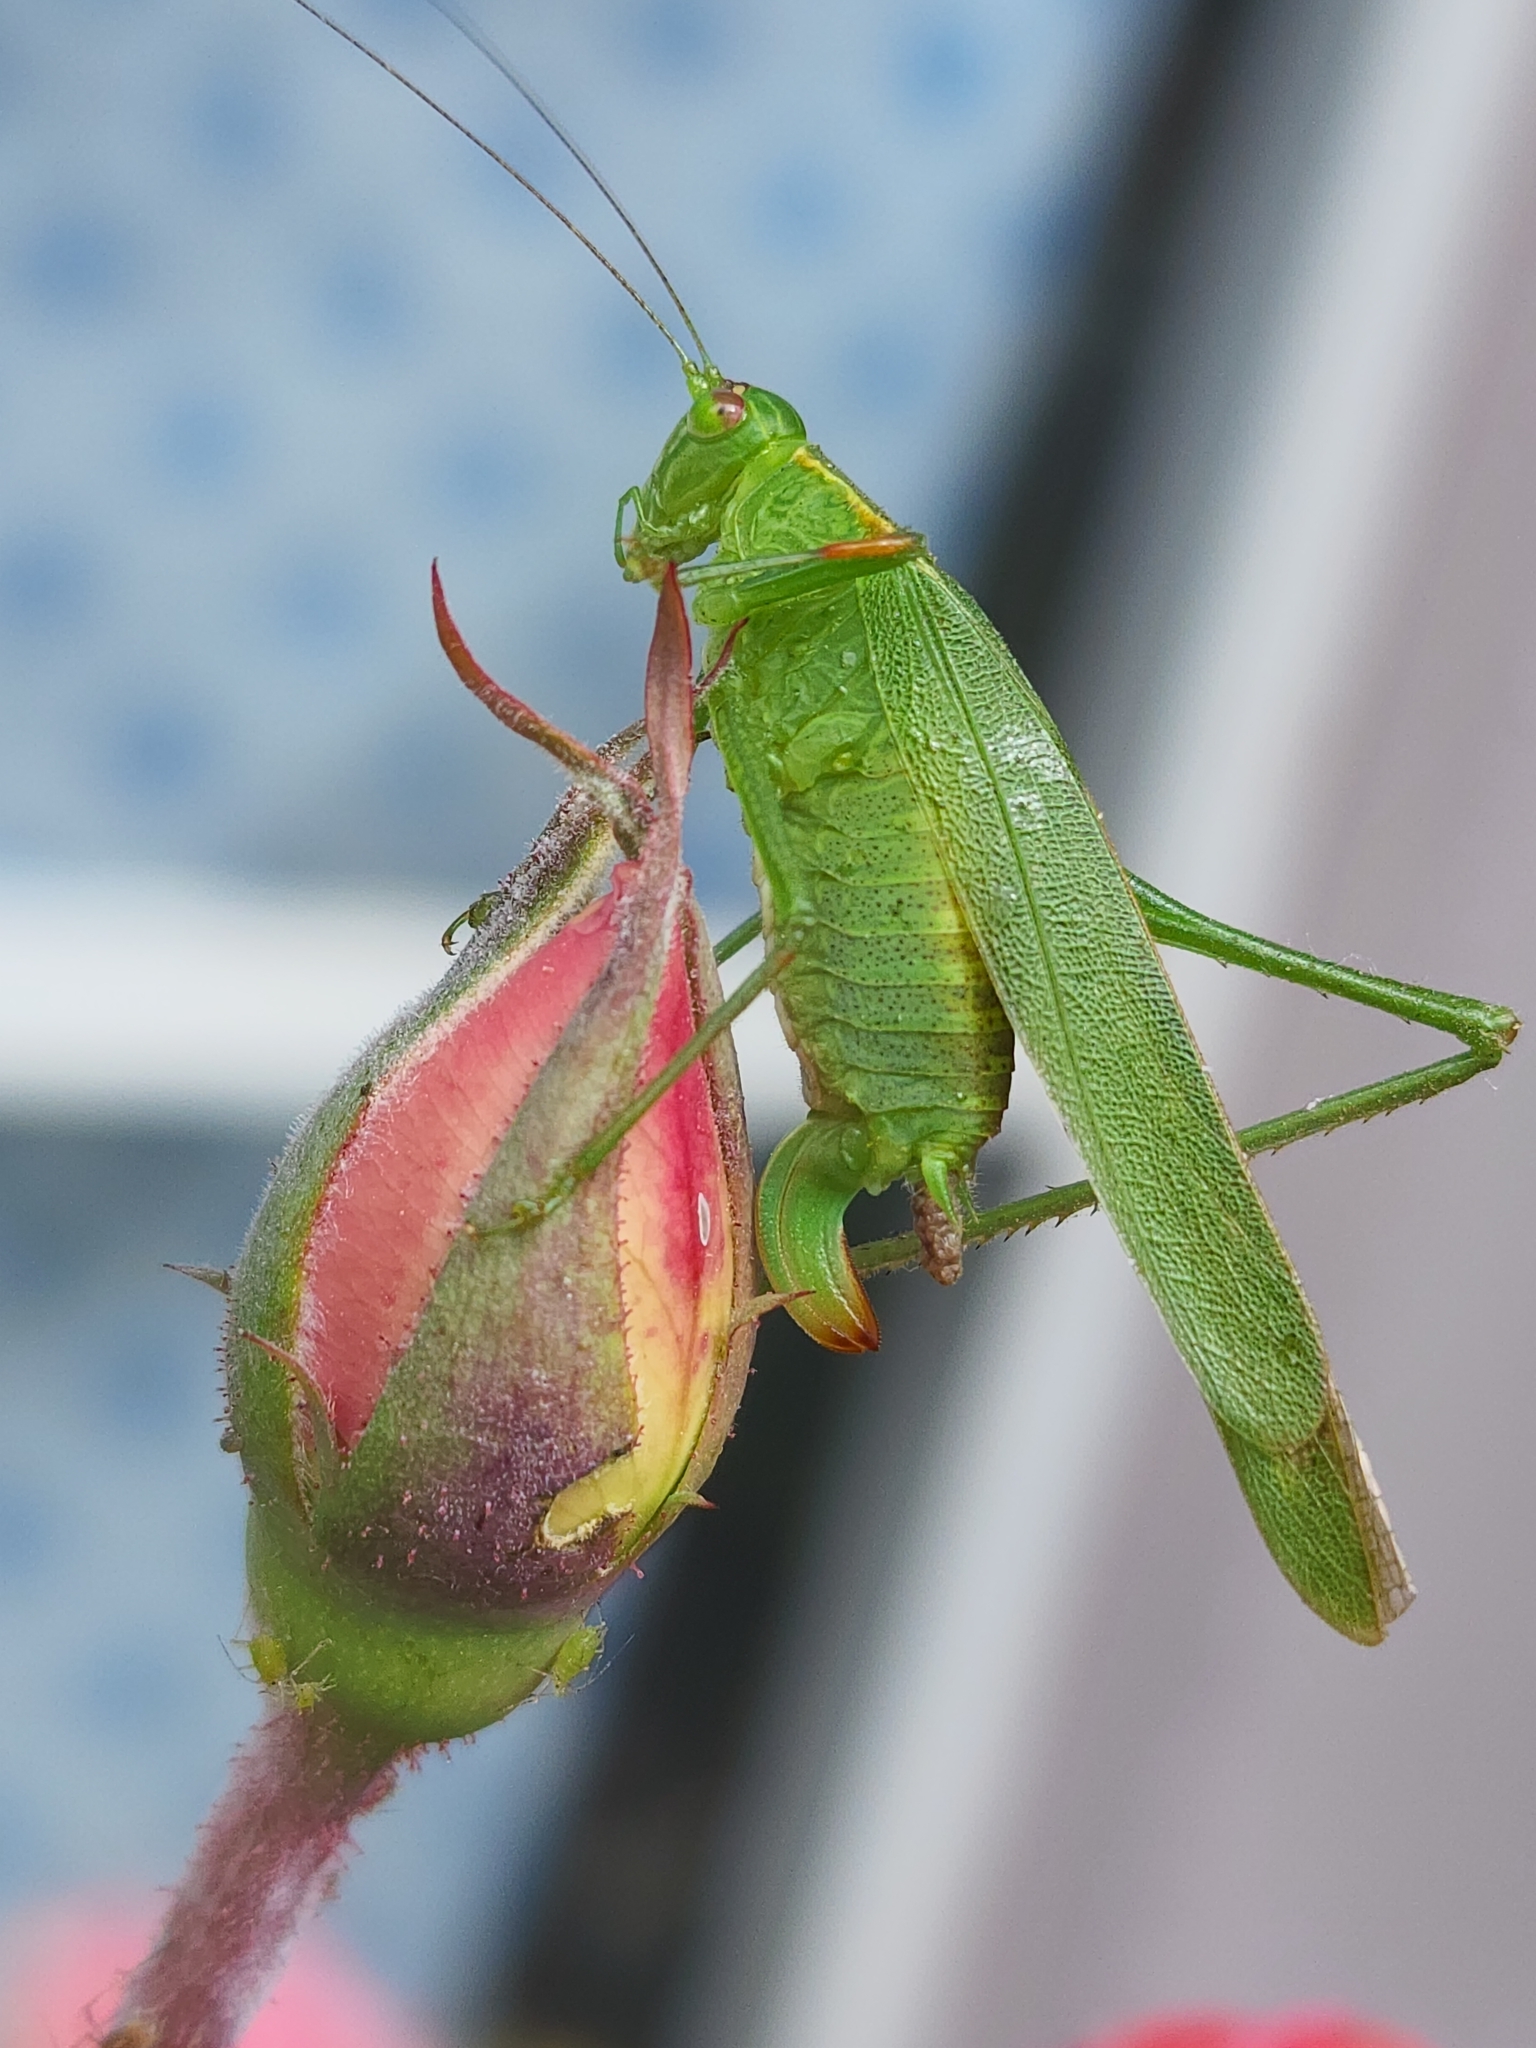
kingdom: Animalia
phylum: Arthropoda
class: Insecta
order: Orthoptera
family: Tettigoniidae
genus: Ligocatinus
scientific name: Ligocatinus spinatus
